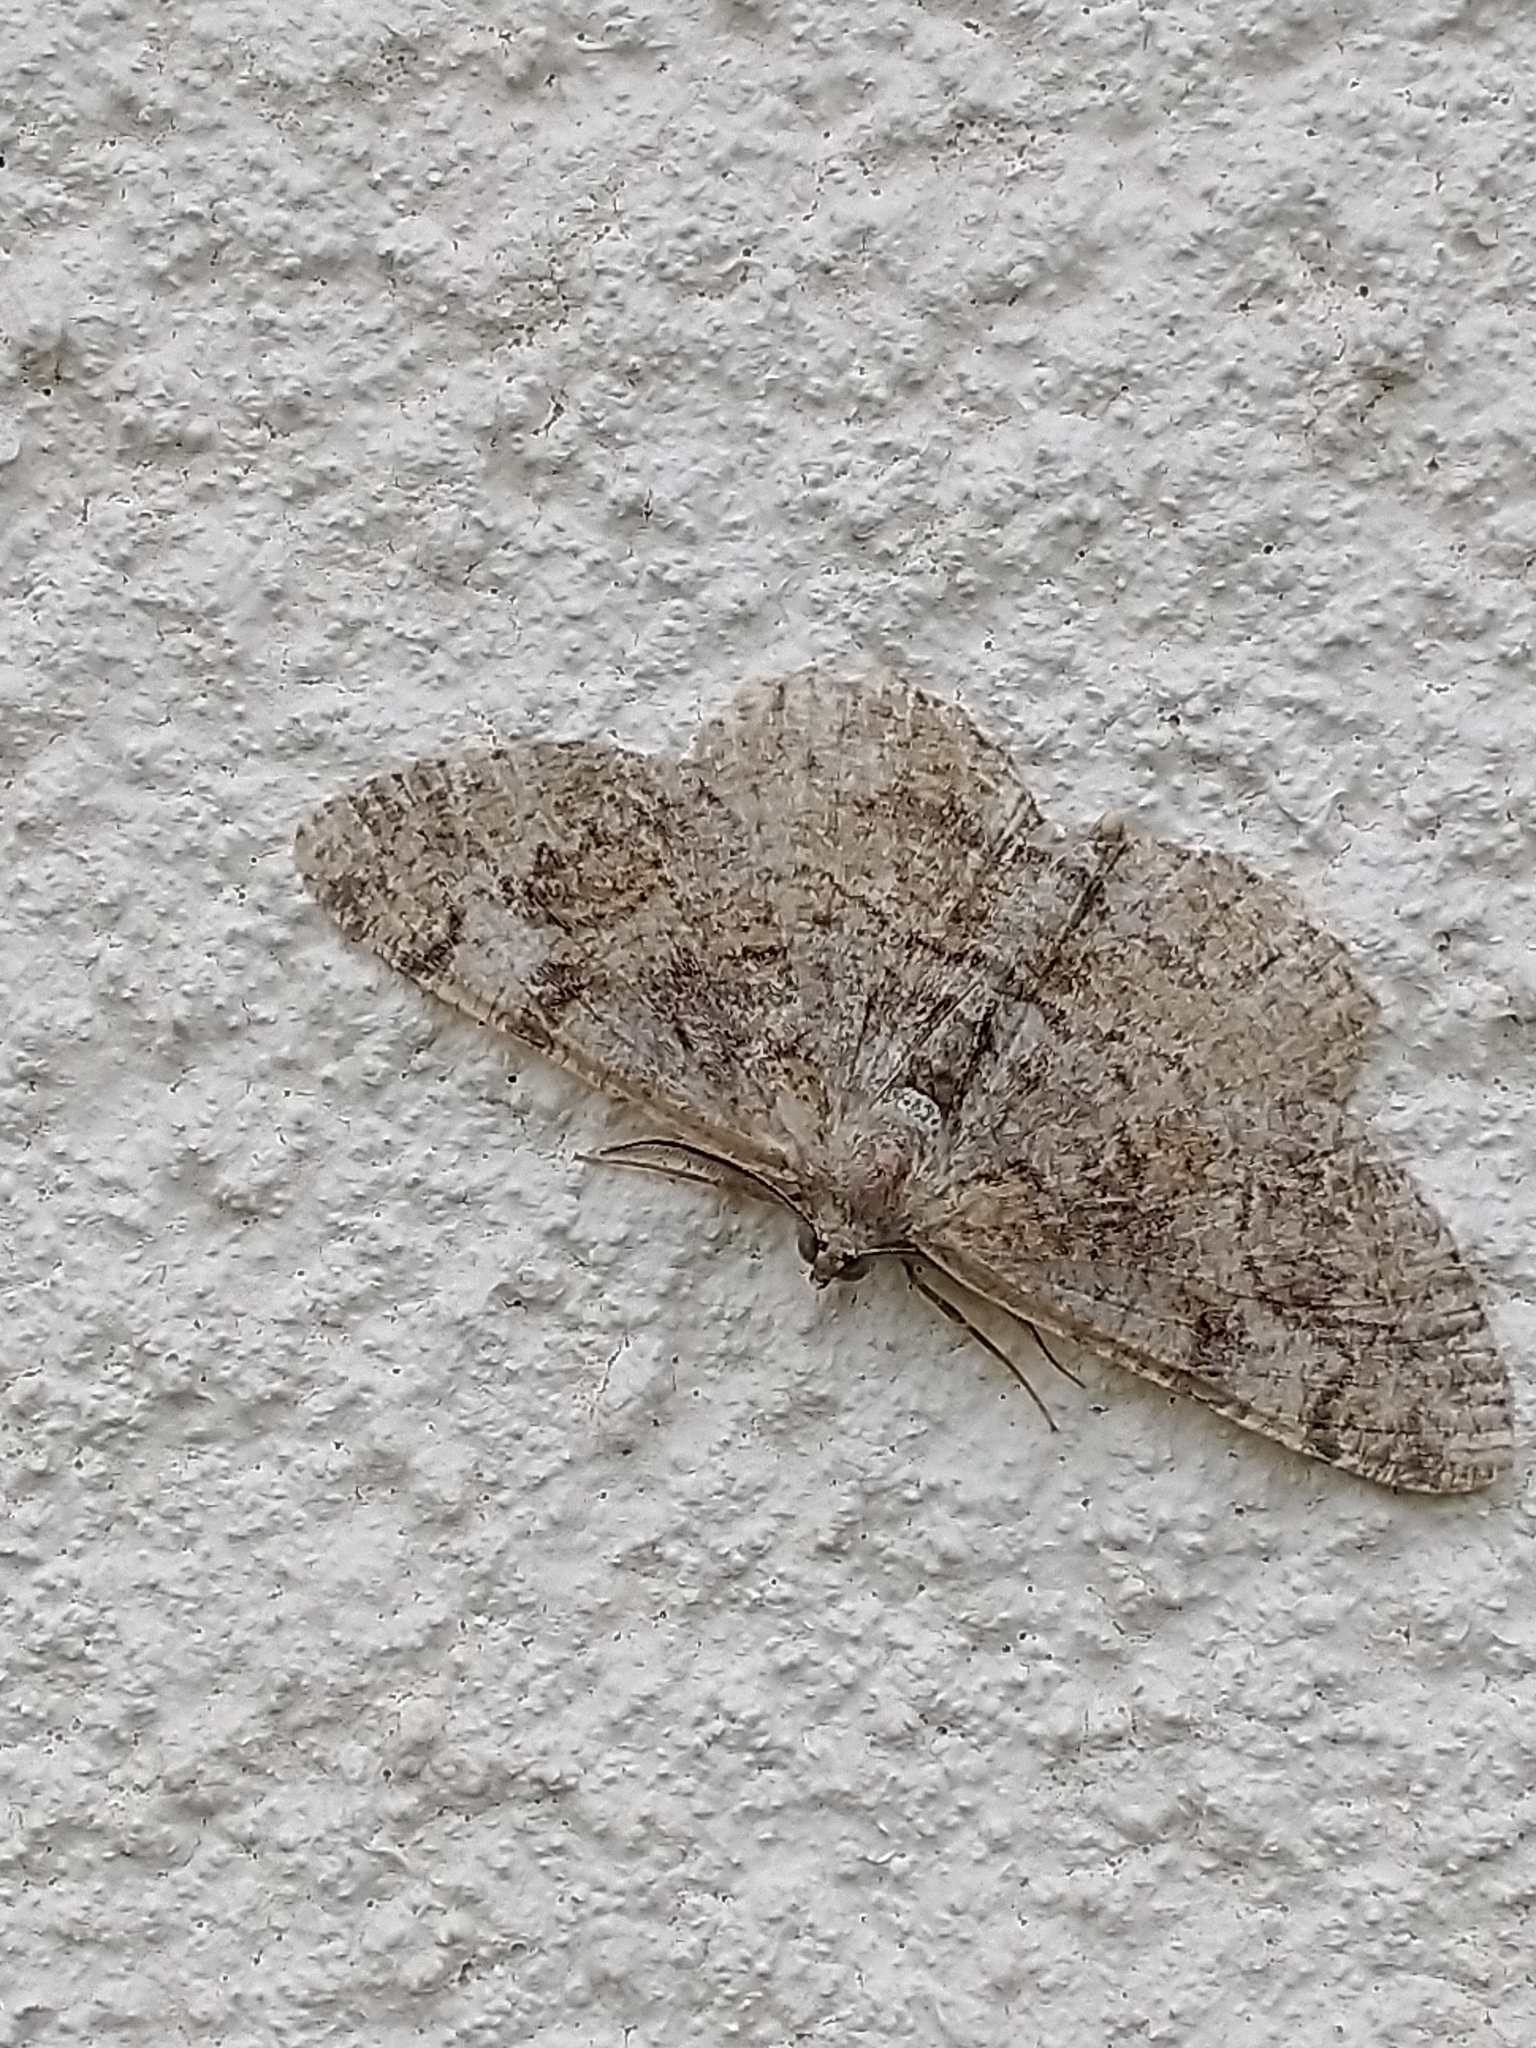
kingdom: Animalia
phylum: Arthropoda
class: Insecta
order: Lepidoptera
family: Geometridae
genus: Alcis
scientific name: Alcis repandata
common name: Mottled beauty
